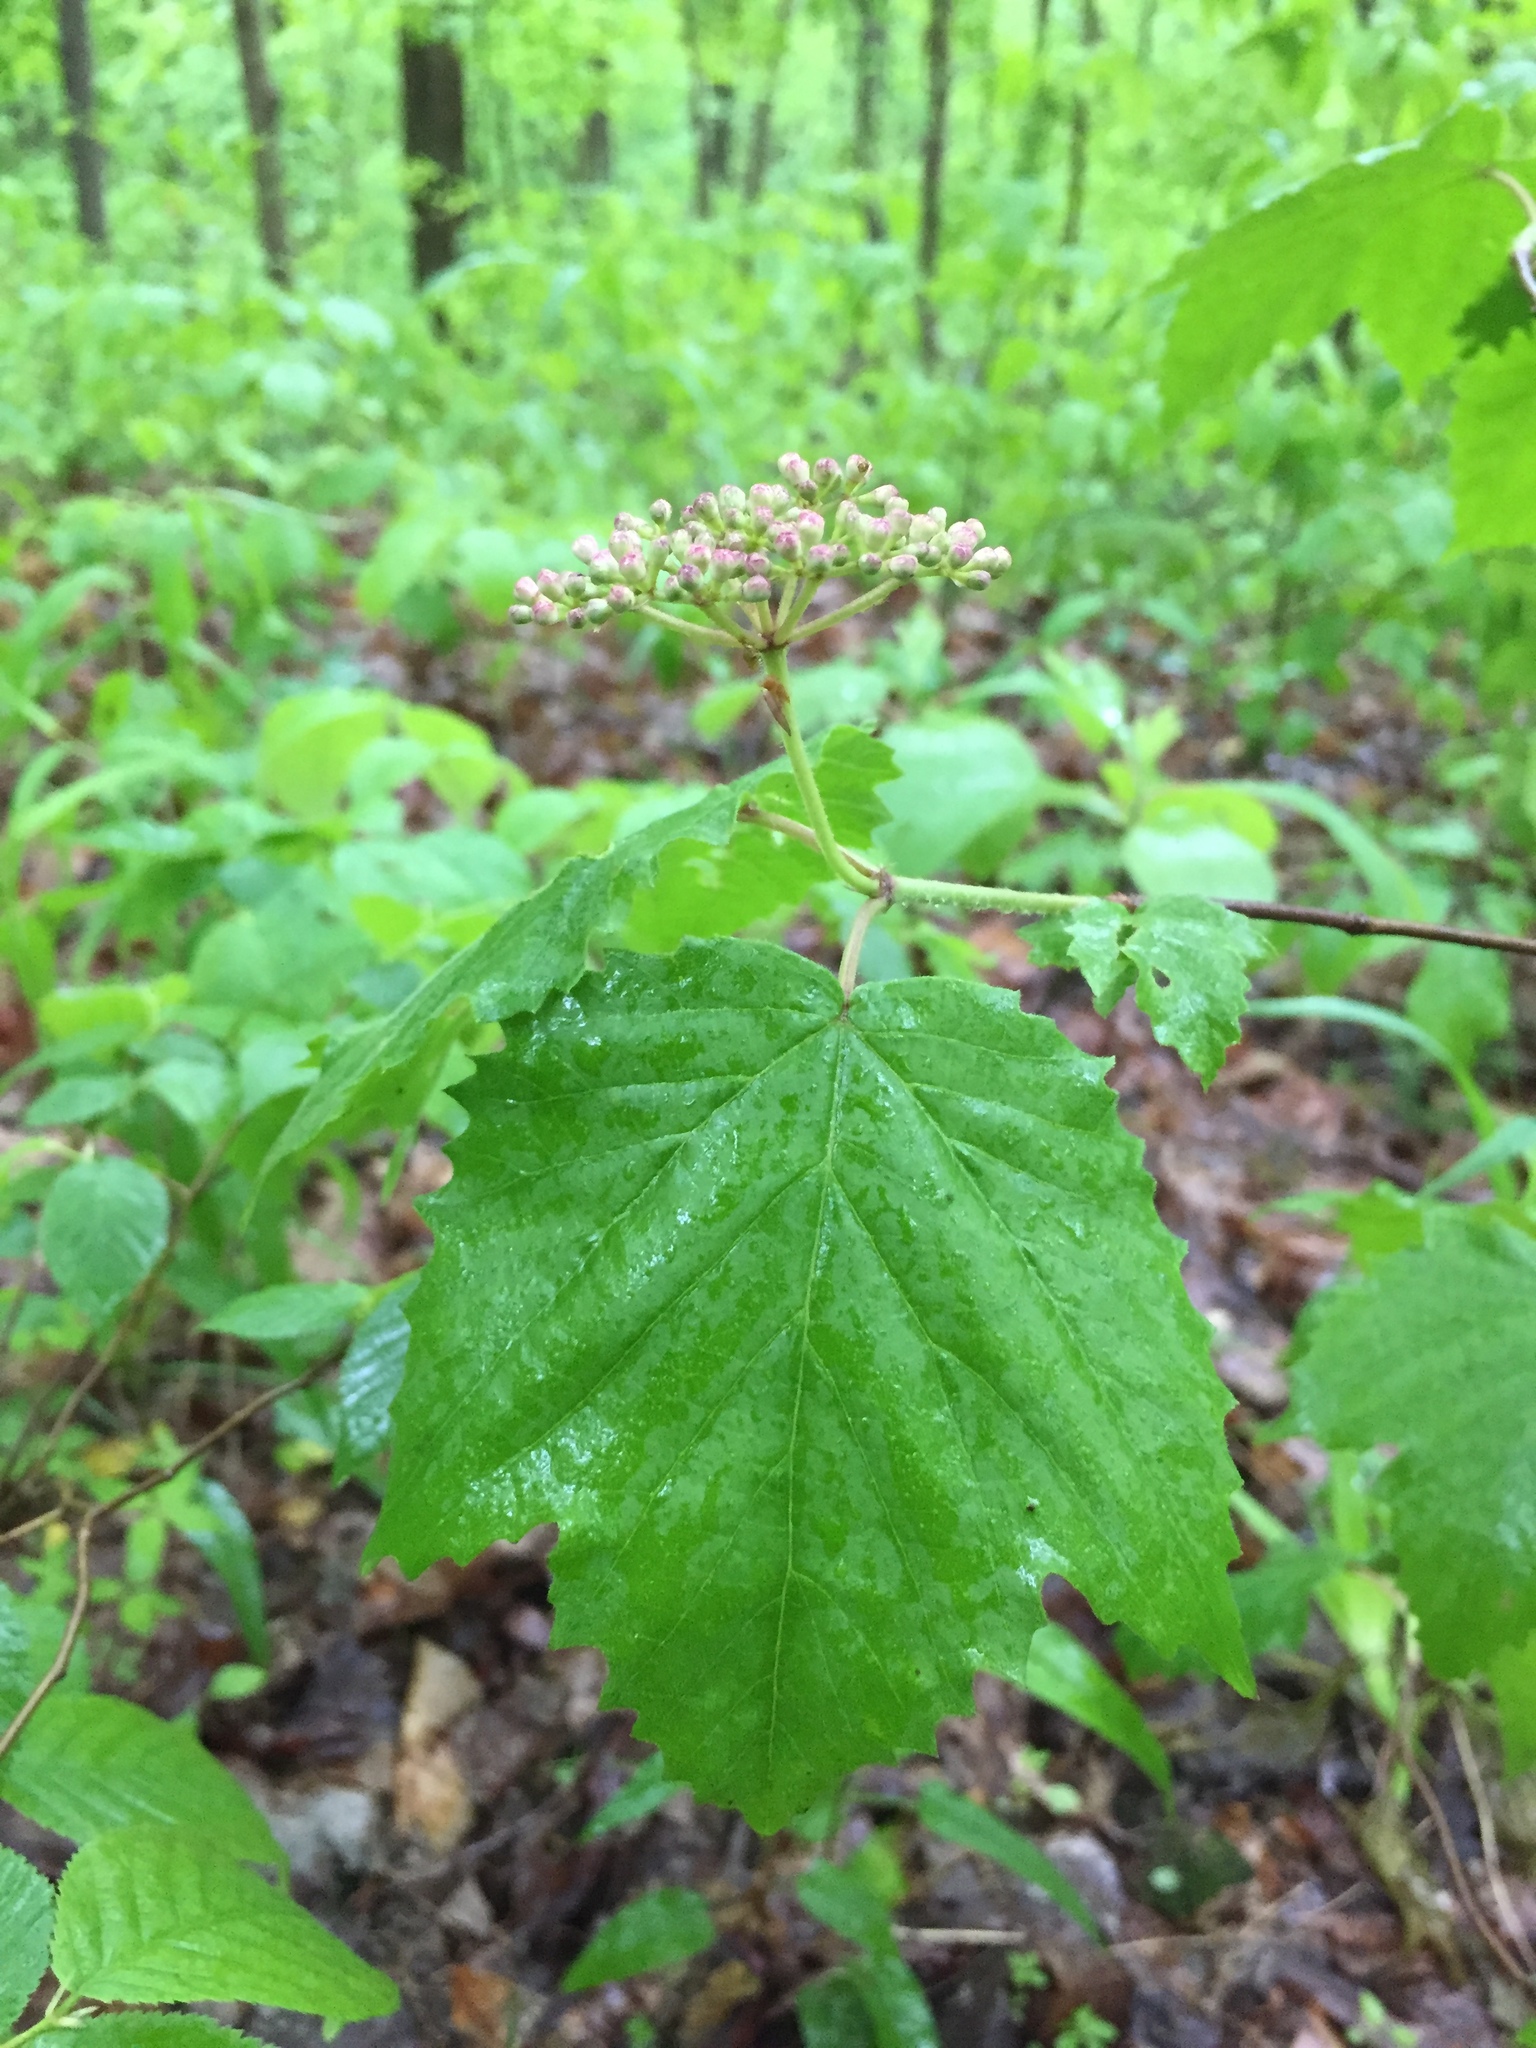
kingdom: Plantae
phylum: Tracheophyta
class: Magnoliopsida
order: Dipsacales
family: Viburnaceae
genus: Viburnum
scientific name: Viburnum acerifolium
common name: Dockmackie
